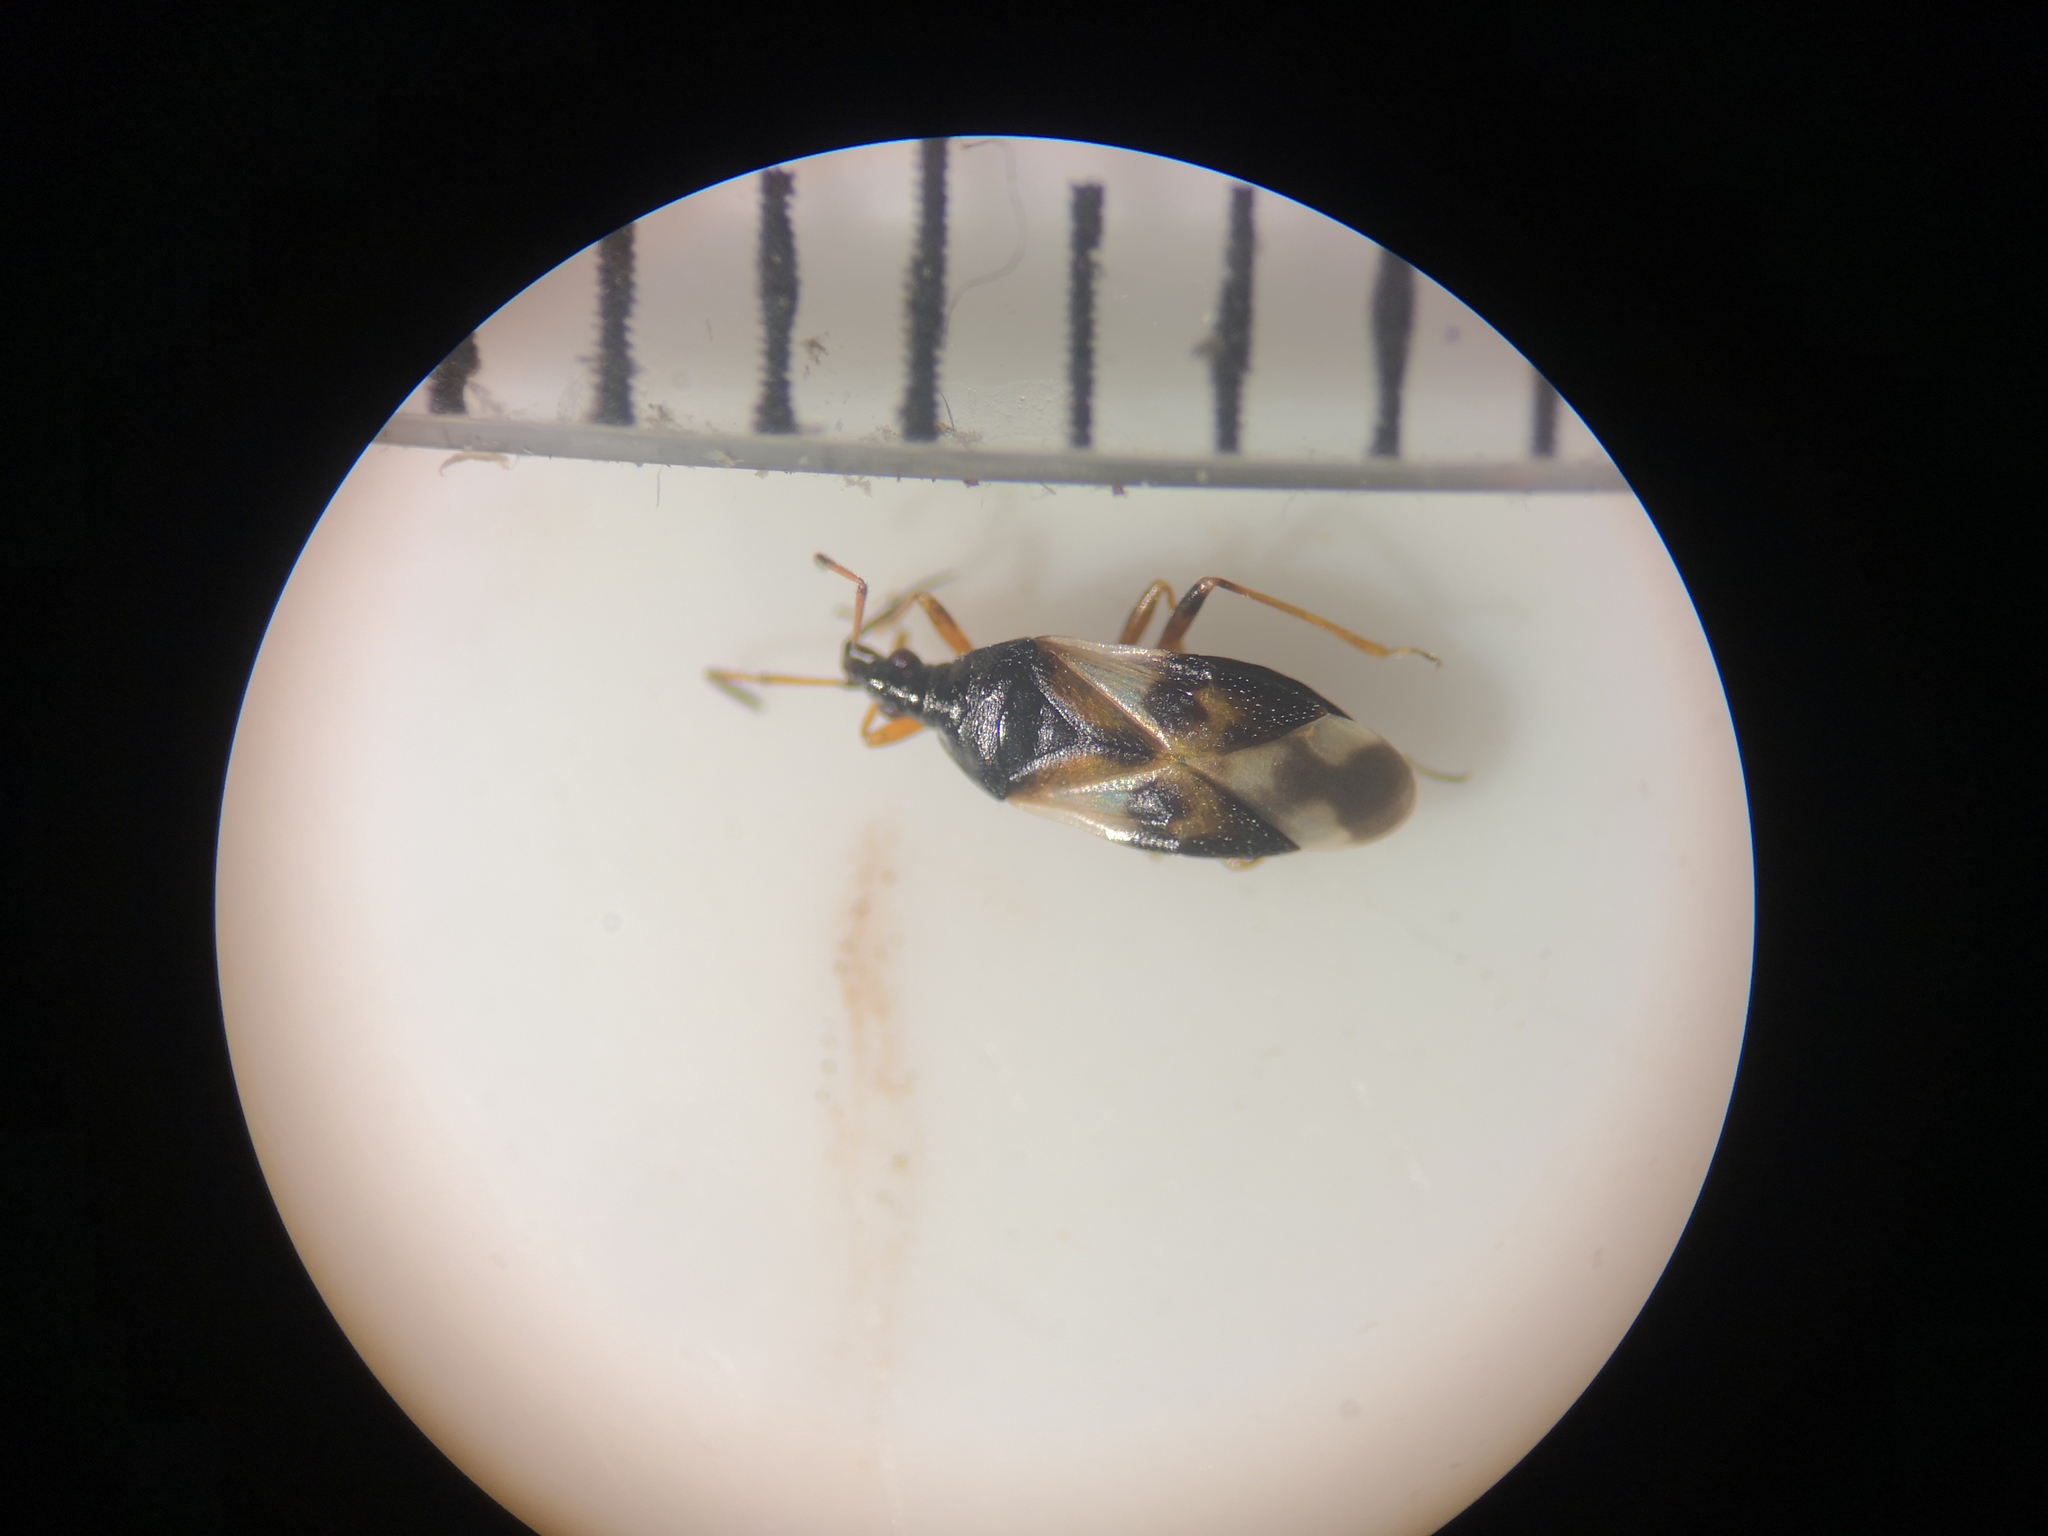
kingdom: Animalia
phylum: Arthropoda
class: Insecta
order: Hemiptera
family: Anthocoridae
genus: Anthocoris
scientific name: Anthocoris nemorum
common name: Minute pirate bug
